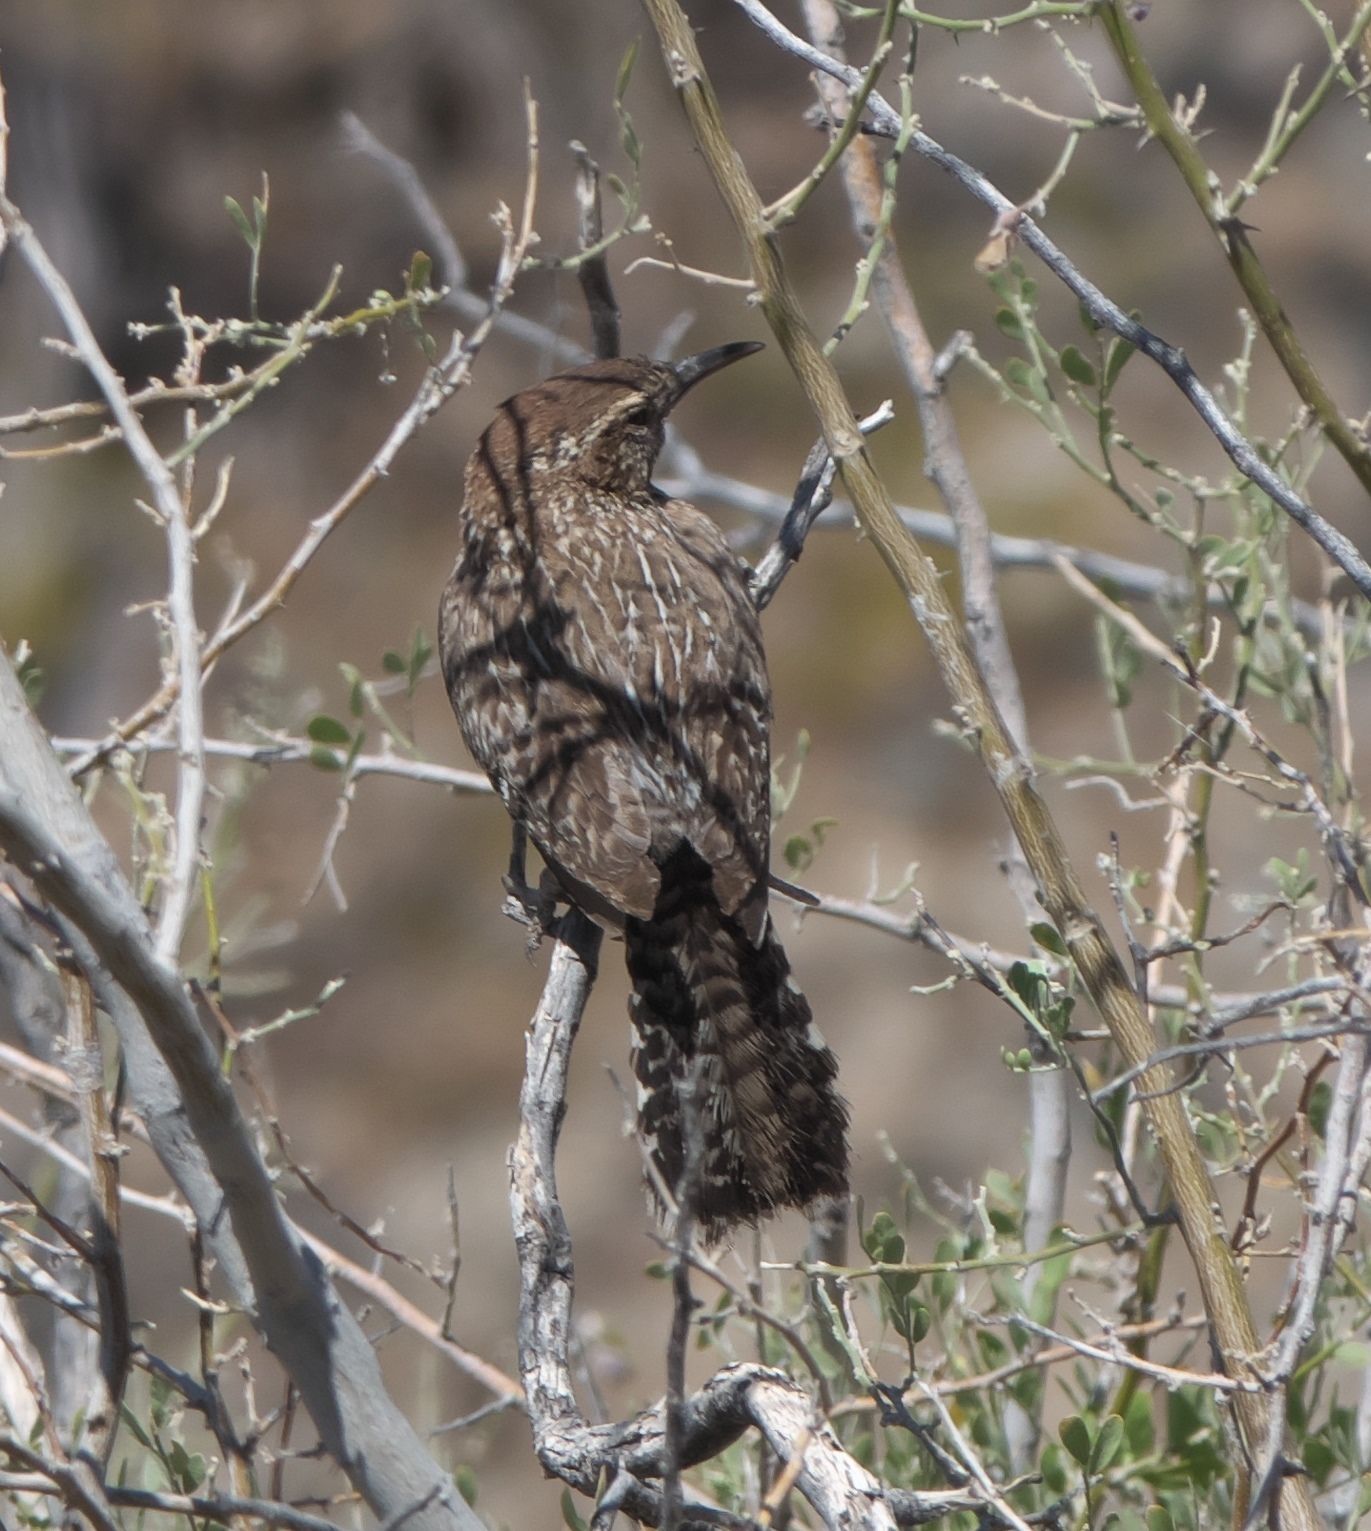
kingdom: Animalia
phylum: Chordata
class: Aves
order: Passeriformes
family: Troglodytidae
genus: Campylorhynchus
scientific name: Campylorhynchus brunneicapillus
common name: Cactus wren
